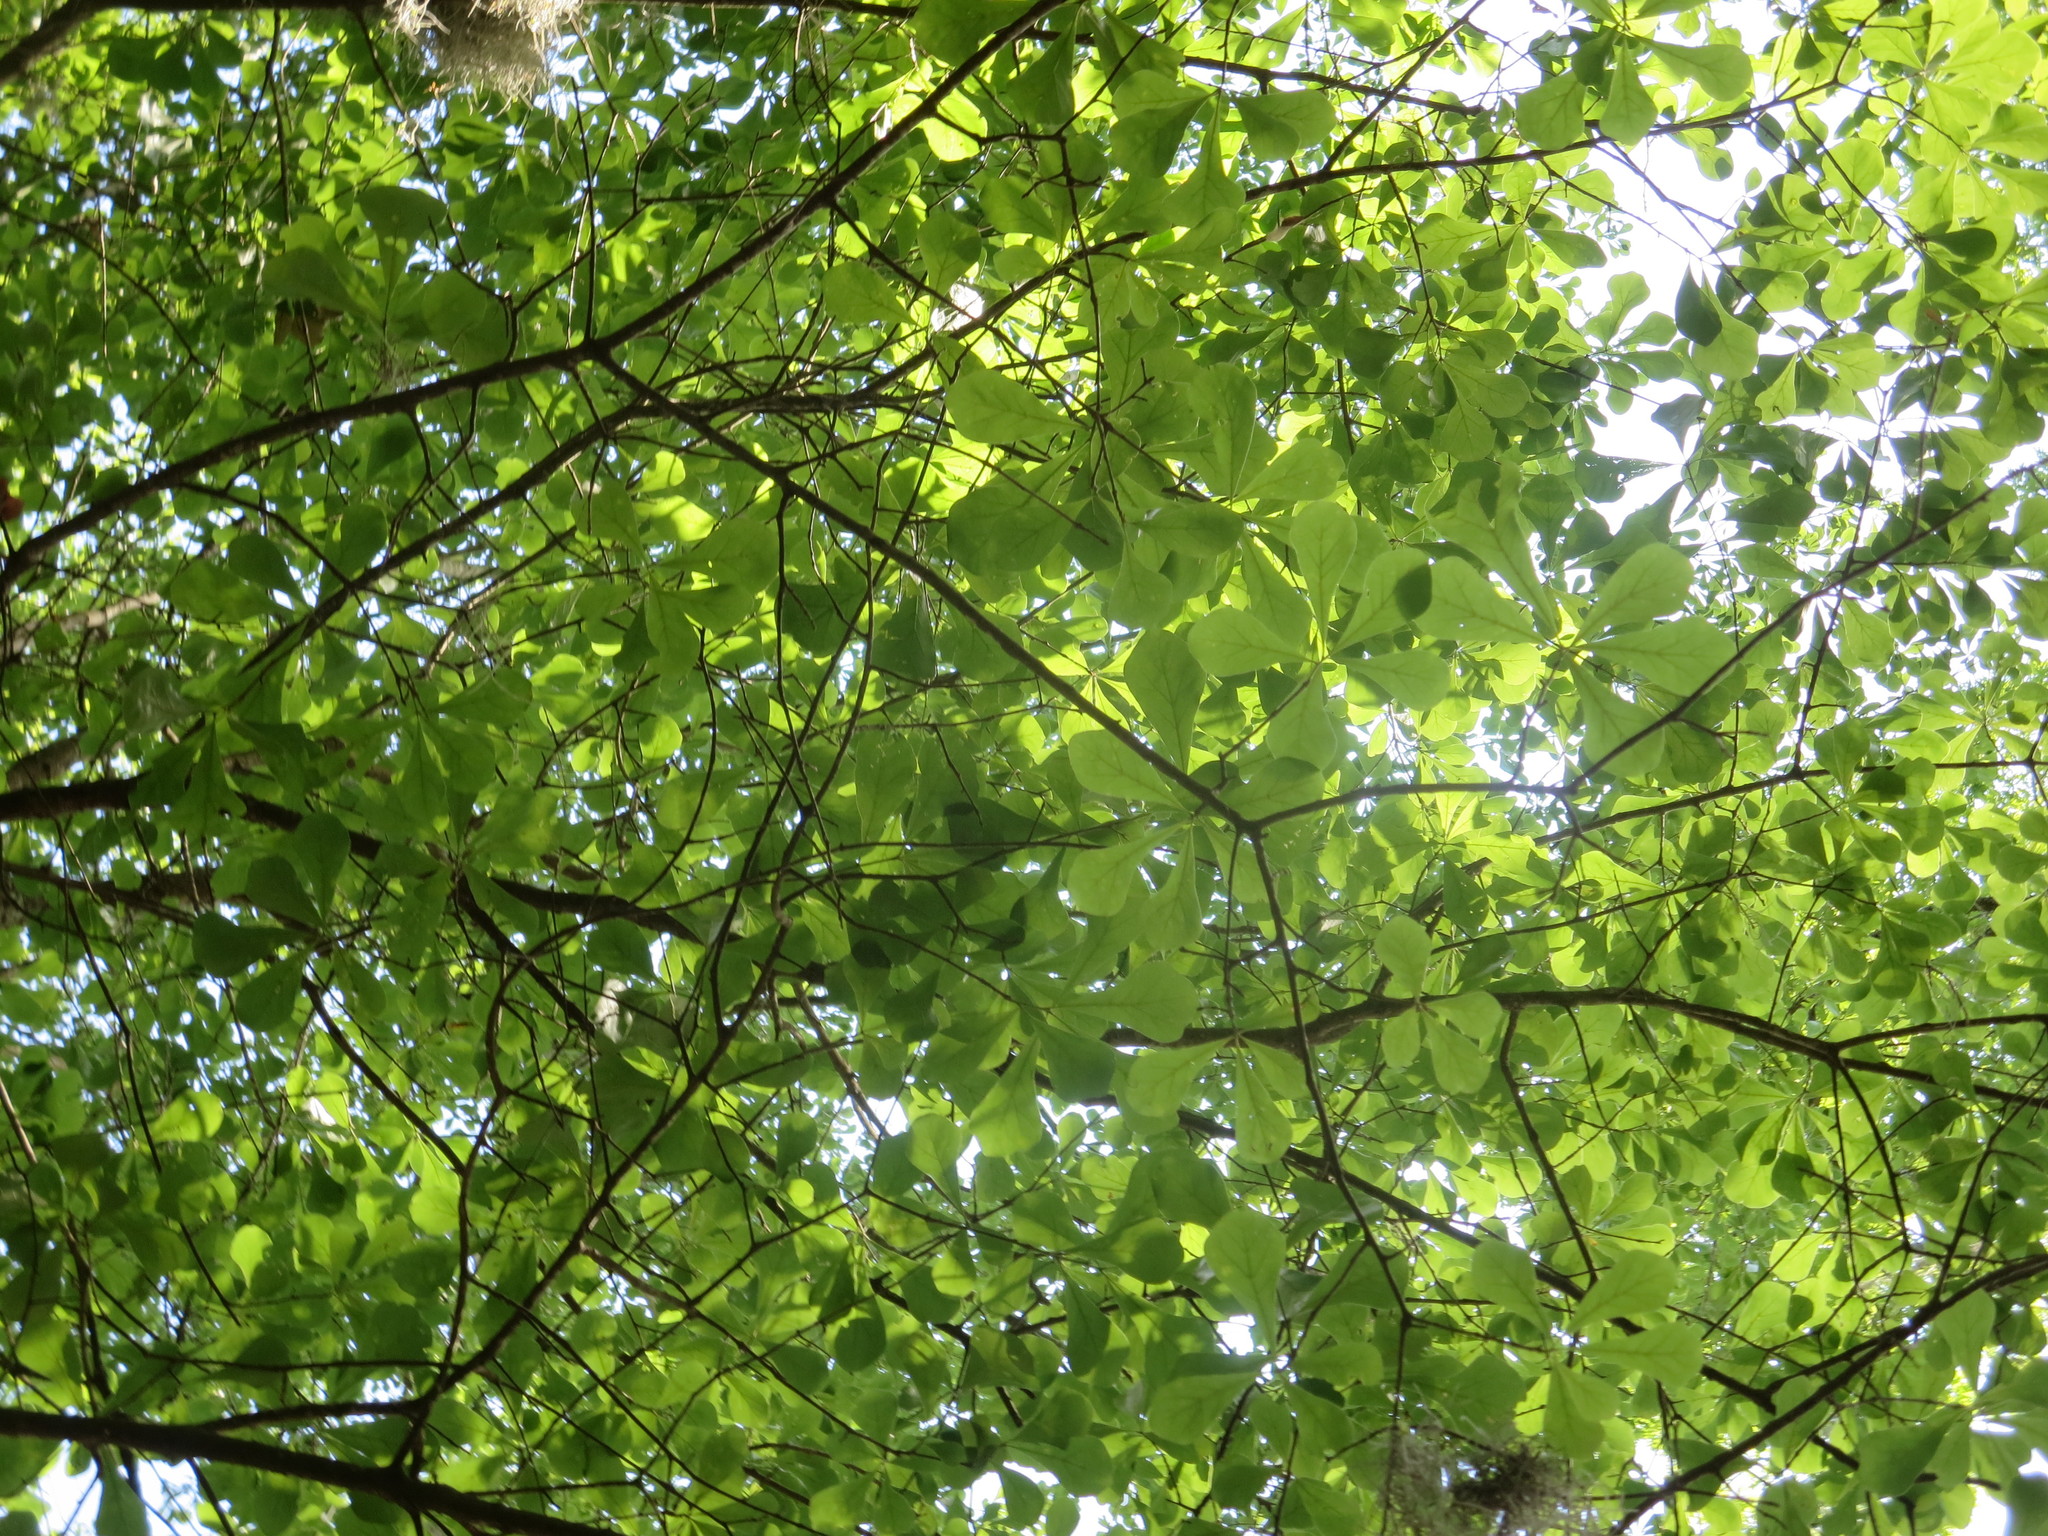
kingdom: Plantae
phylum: Tracheophyta
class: Magnoliopsida
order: Fagales
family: Fagaceae
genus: Quercus
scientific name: Quercus nigra
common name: Water oak
